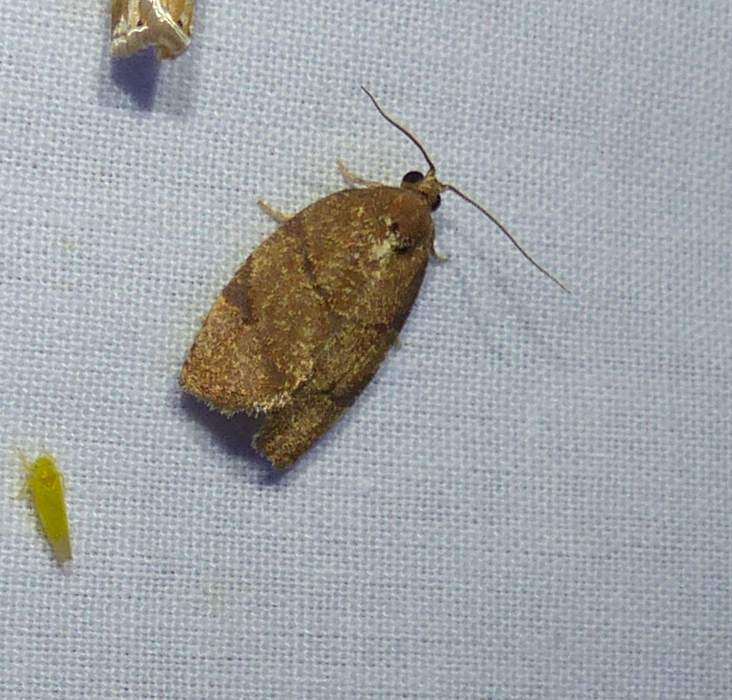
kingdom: Animalia
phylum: Arthropoda
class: Insecta
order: Lepidoptera
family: Tortricidae
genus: Argyrotaenia
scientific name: Argyrotaenia juglandana
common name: Hickory leafroller moth
